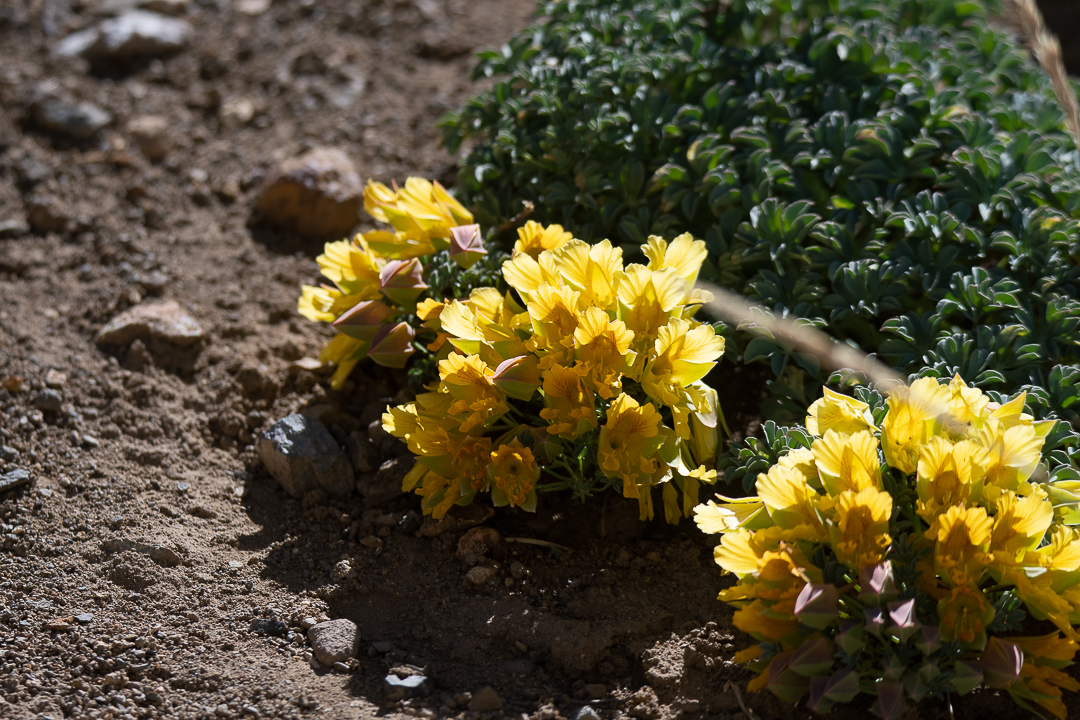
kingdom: Plantae
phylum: Tracheophyta
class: Magnoliopsida
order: Brassicales
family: Tropaeolaceae
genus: Tropaeolum
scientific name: Tropaeolum polyphyllum
